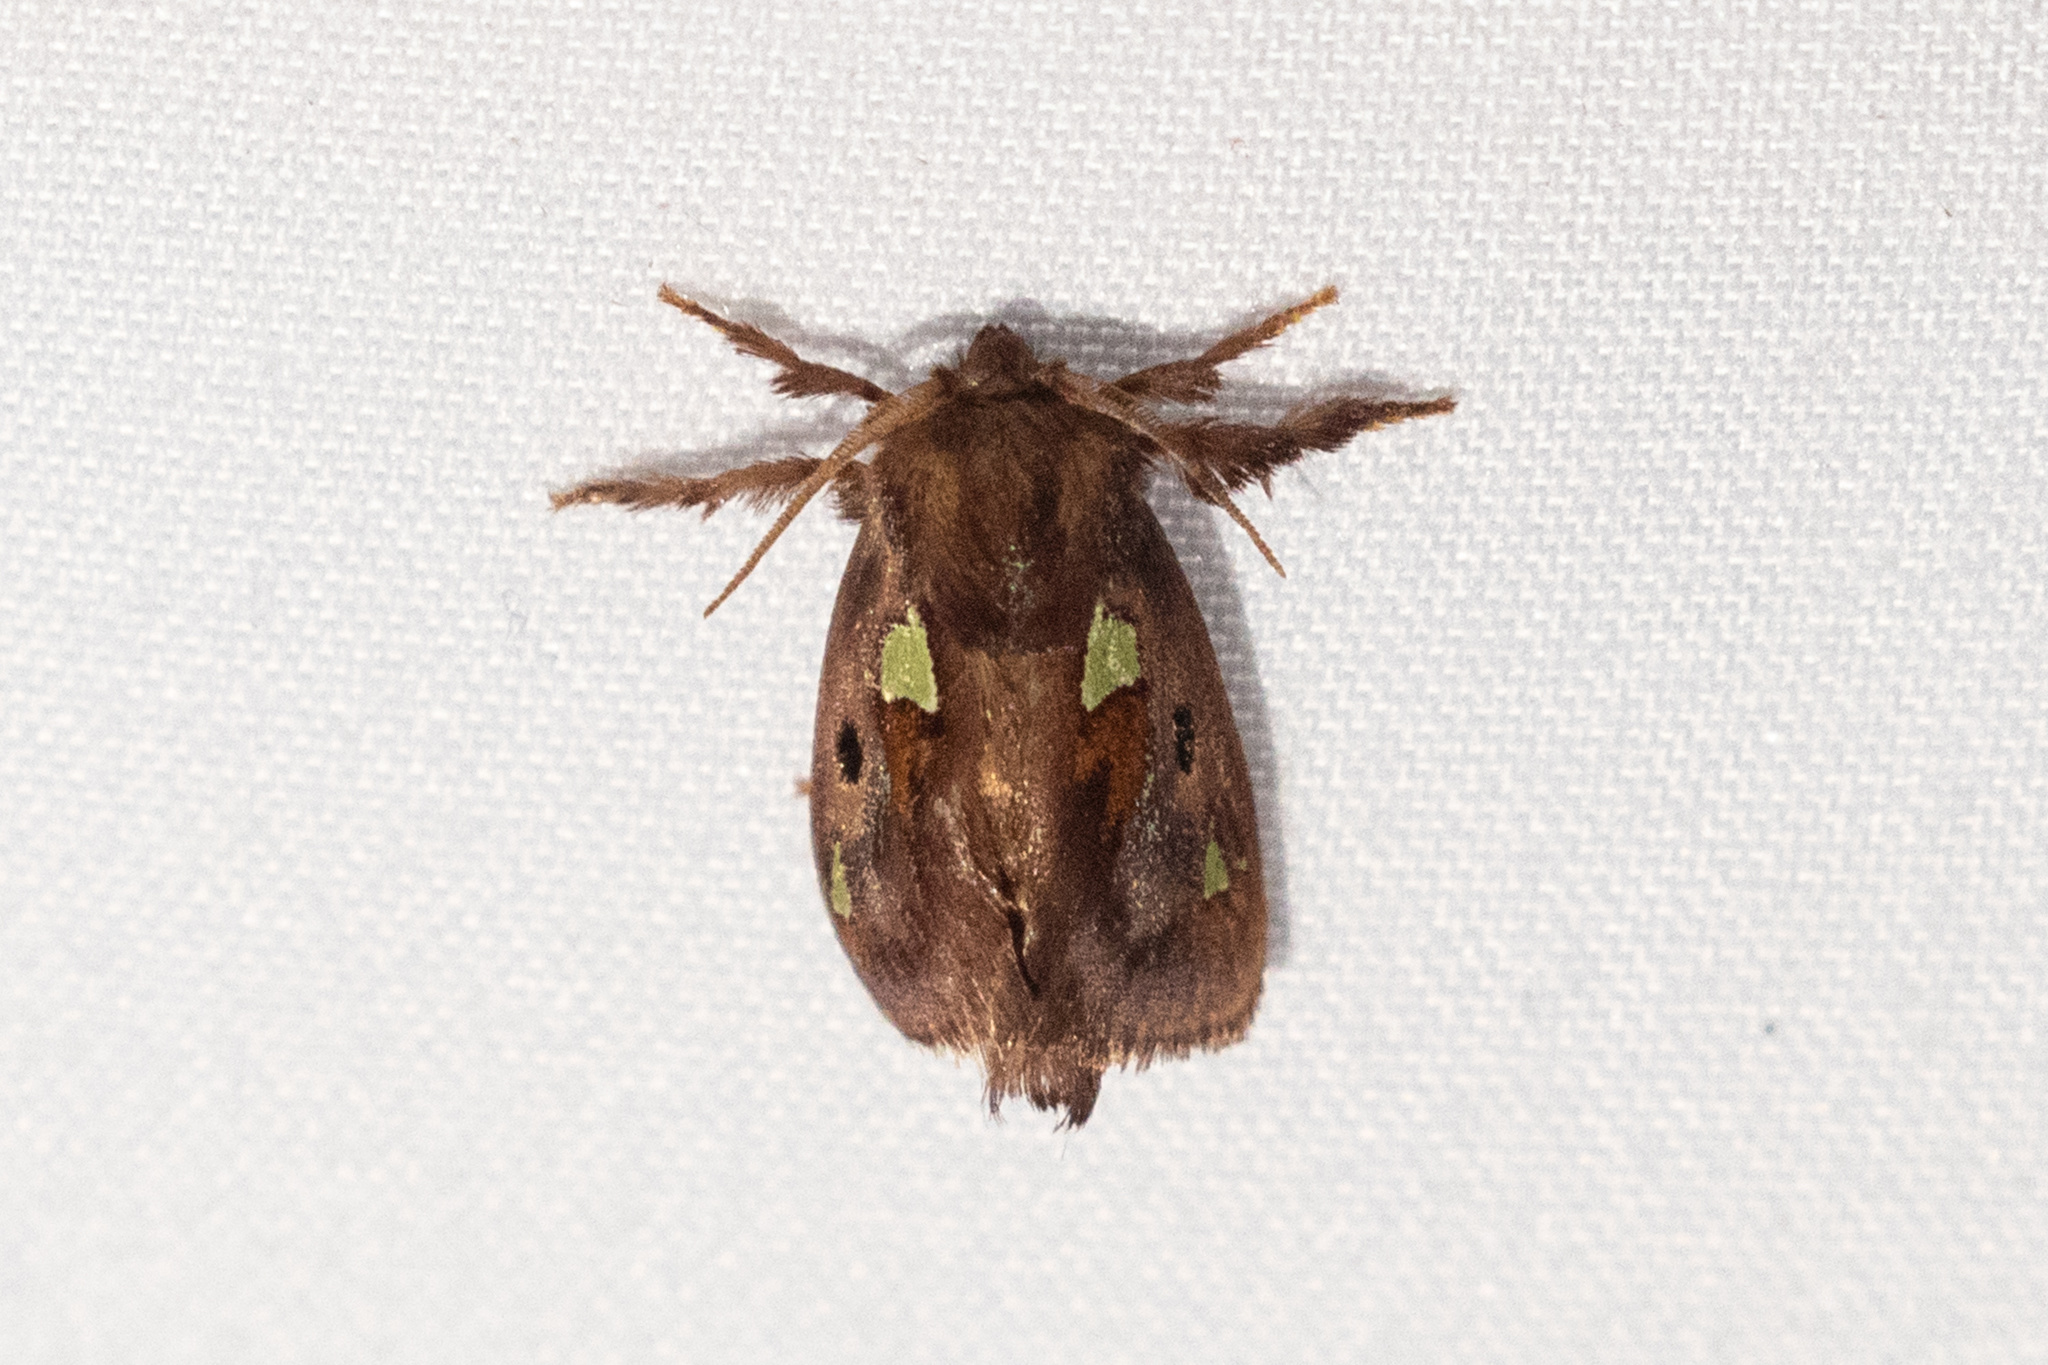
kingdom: Animalia
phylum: Arthropoda
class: Insecta
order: Lepidoptera
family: Limacodidae
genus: Euclea
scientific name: Euclea delphinii
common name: Spiny oak-slug moth
